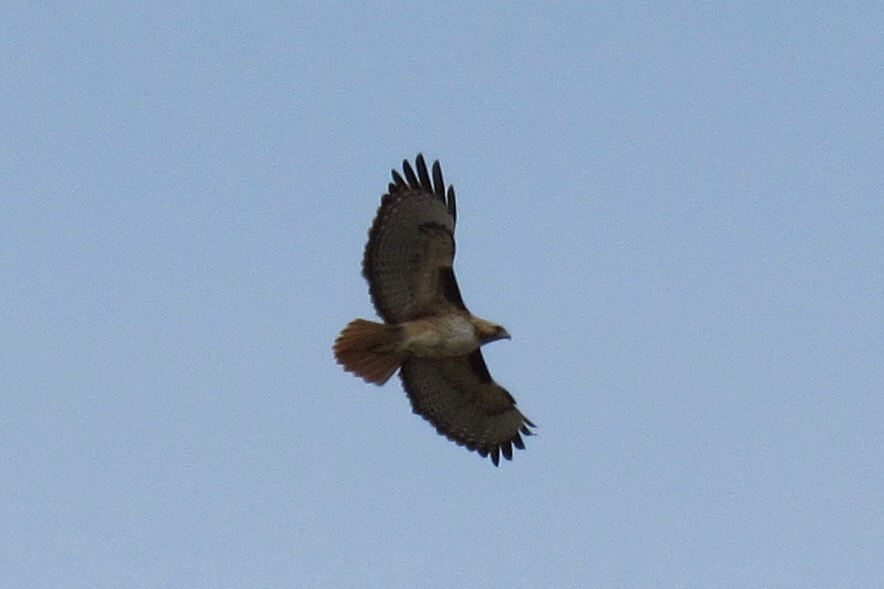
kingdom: Animalia
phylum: Chordata
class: Aves
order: Accipitriformes
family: Accipitridae
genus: Buteo
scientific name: Buteo jamaicensis
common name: Red-tailed hawk
